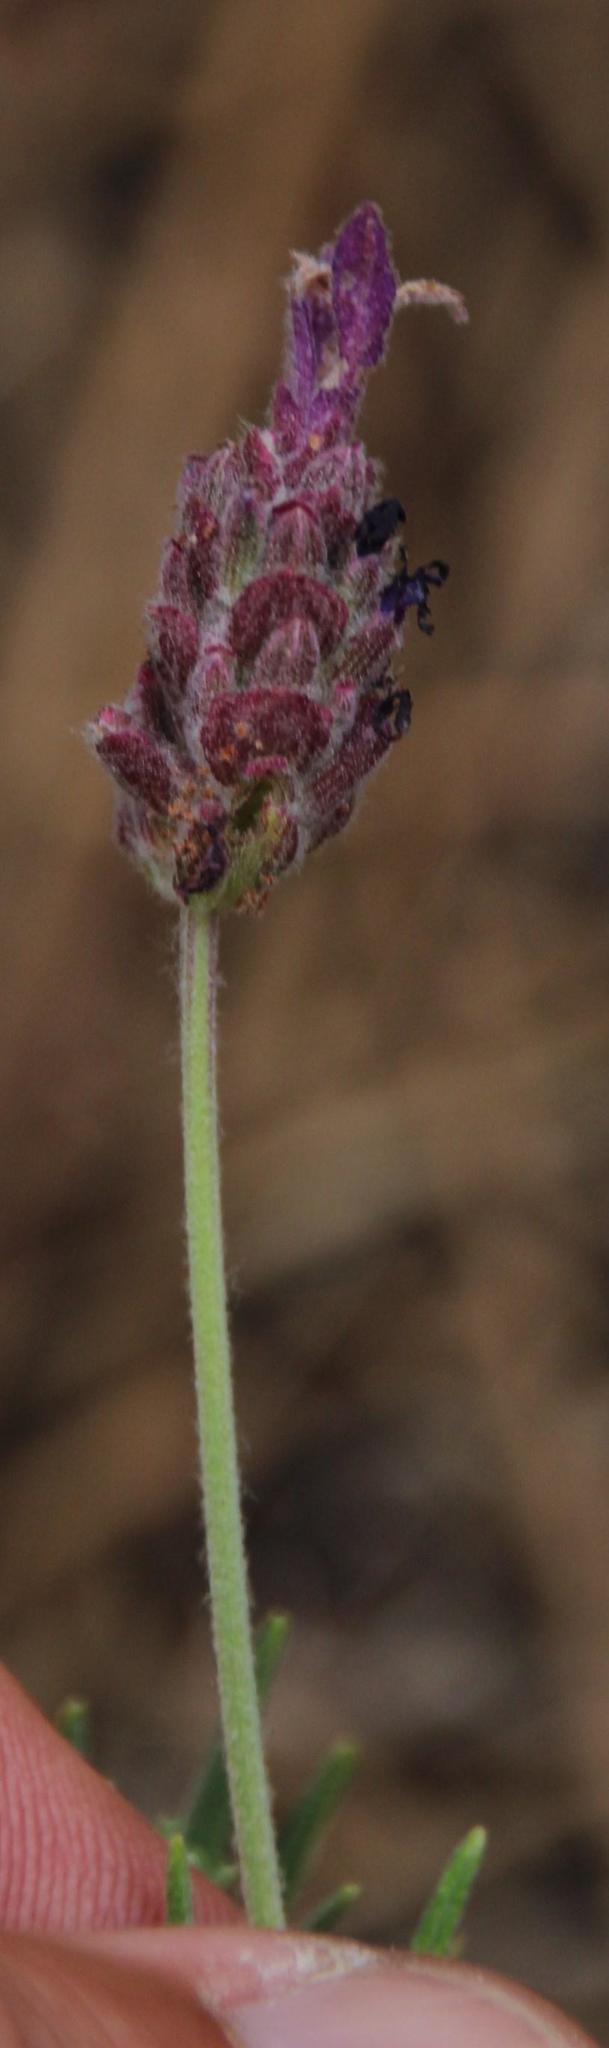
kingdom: Plantae
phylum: Tracheophyta
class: Magnoliopsida
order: Lamiales
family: Lamiaceae
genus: Lavandula
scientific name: Lavandula pedunculata
